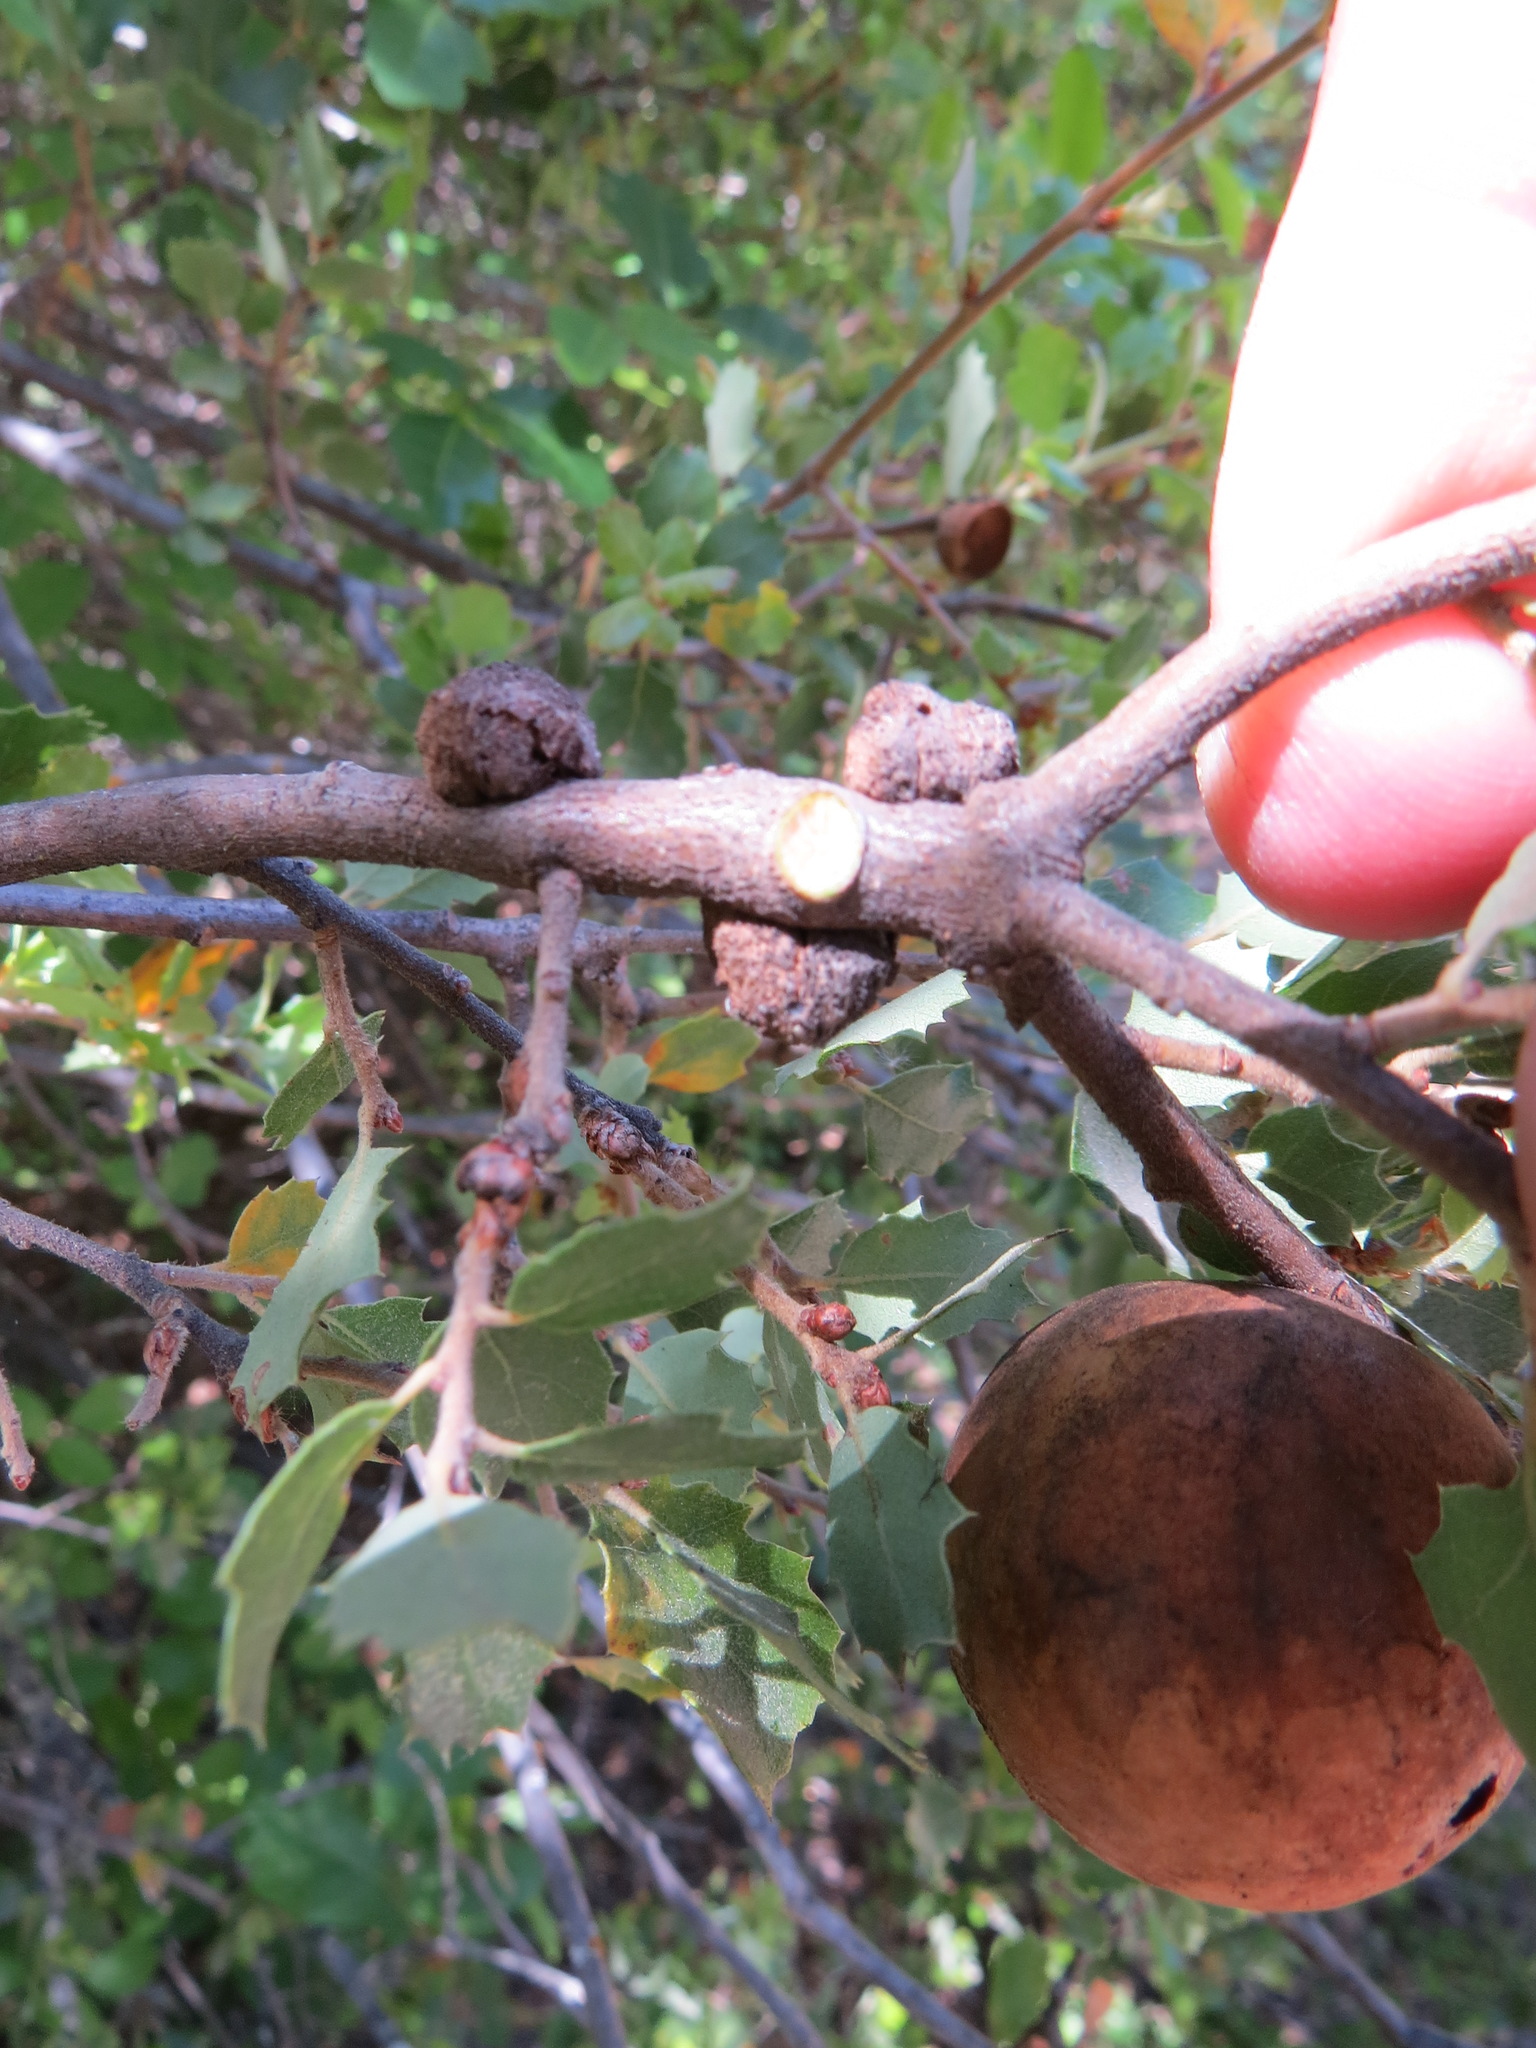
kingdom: Animalia
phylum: Arthropoda
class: Insecta
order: Hymenoptera
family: Cynipidae
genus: Andricus
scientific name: Andricus quercuscalifornicus
